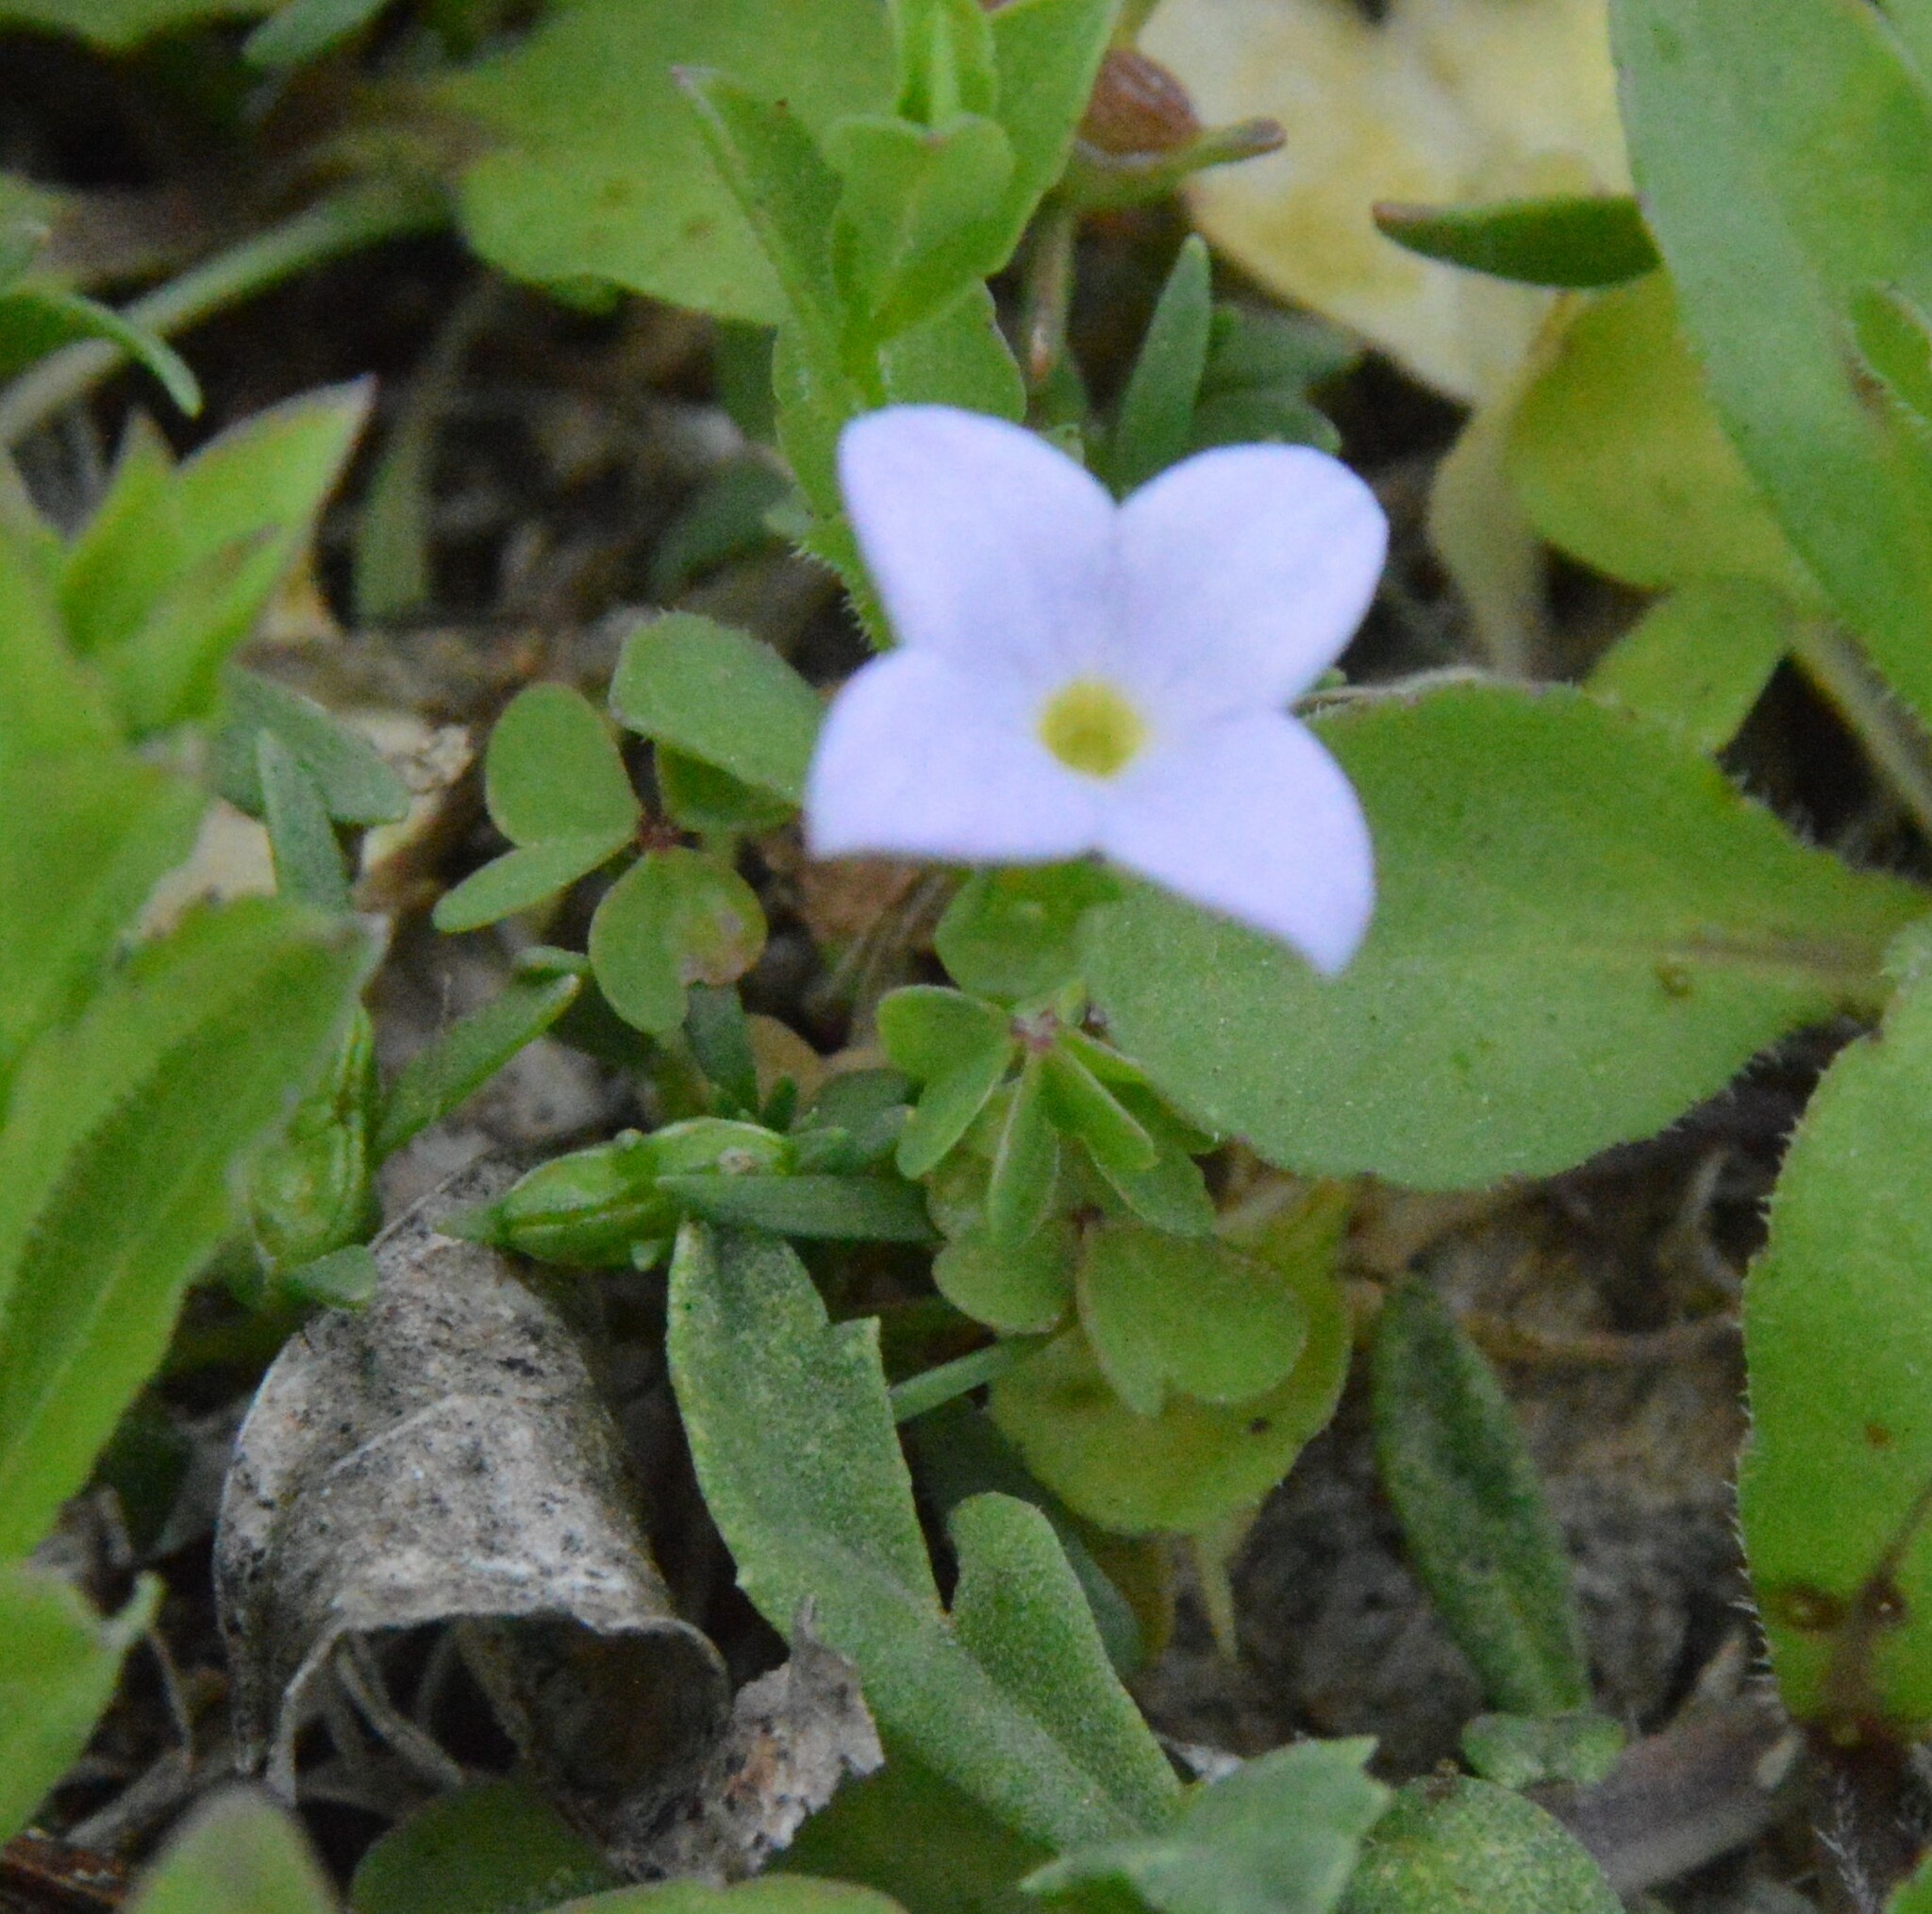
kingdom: Plantae
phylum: Tracheophyta
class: Magnoliopsida
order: Gentianales
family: Rubiaceae
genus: Houstonia
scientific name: Houstonia rosea
